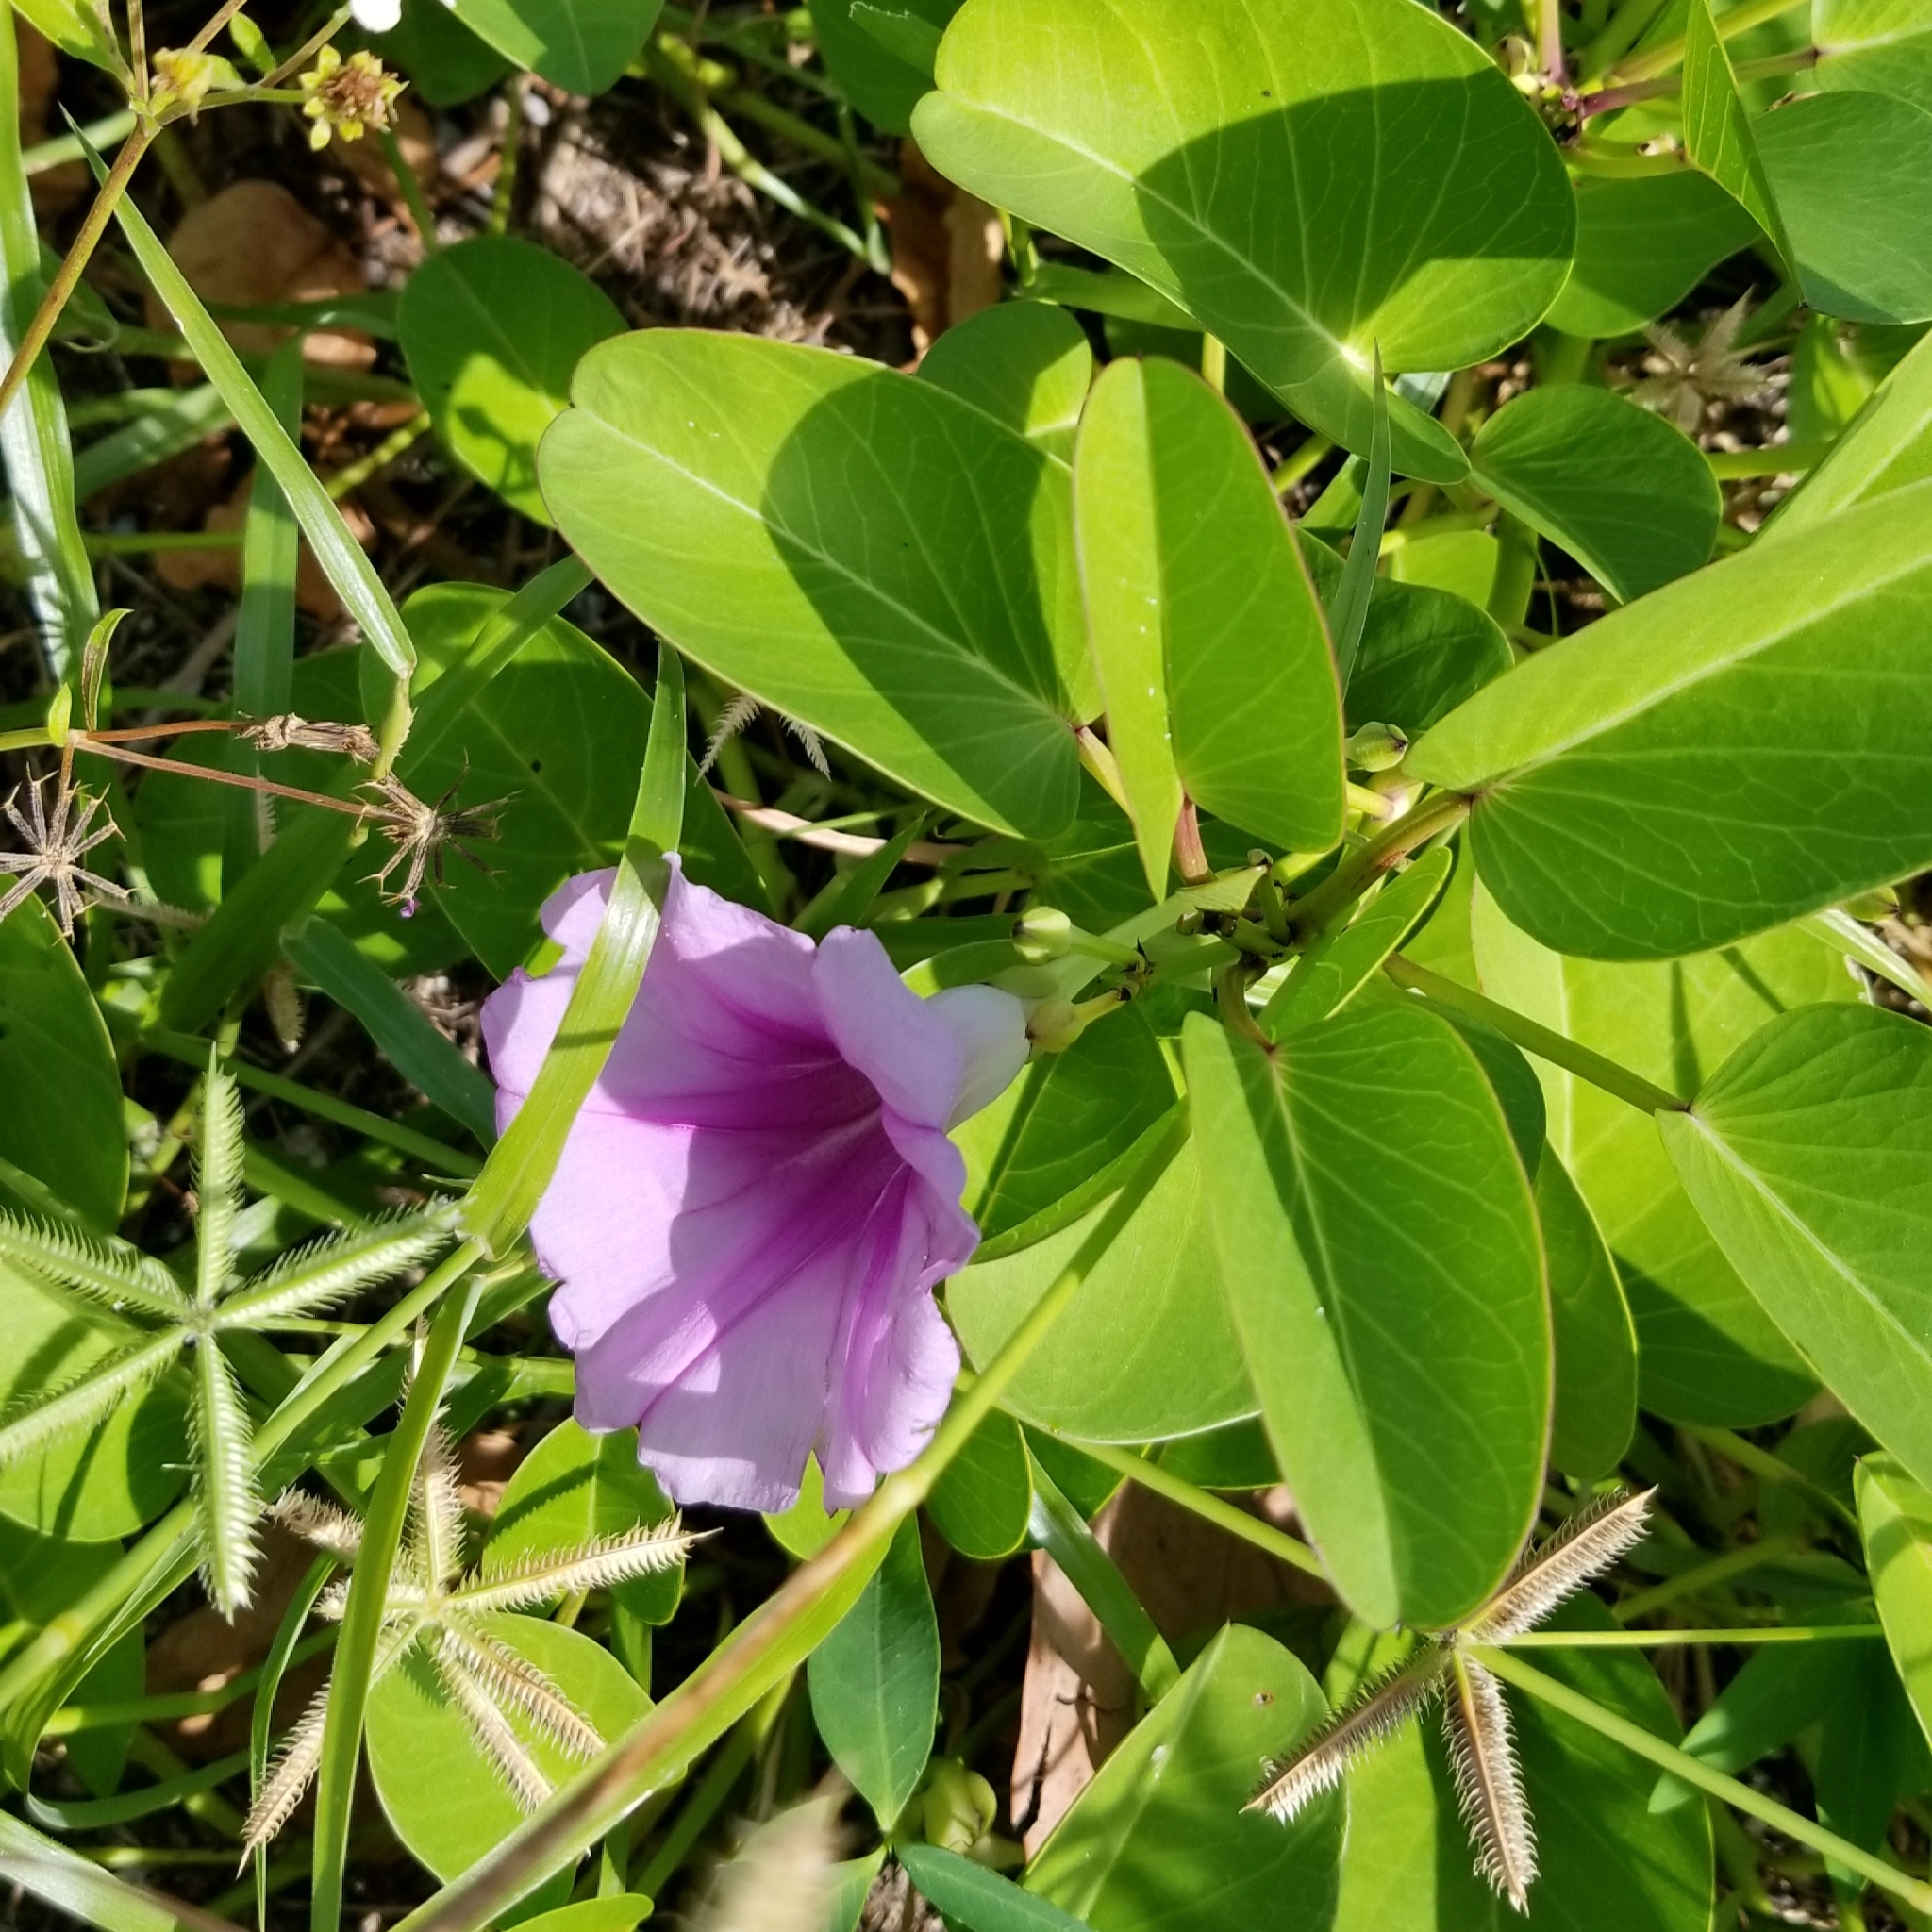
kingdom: Plantae
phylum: Tracheophyta
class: Magnoliopsida
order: Solanales
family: Convolvulaceae
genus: Ipomoea
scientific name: Ipomoea pes-caprae
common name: Beach morning glory
